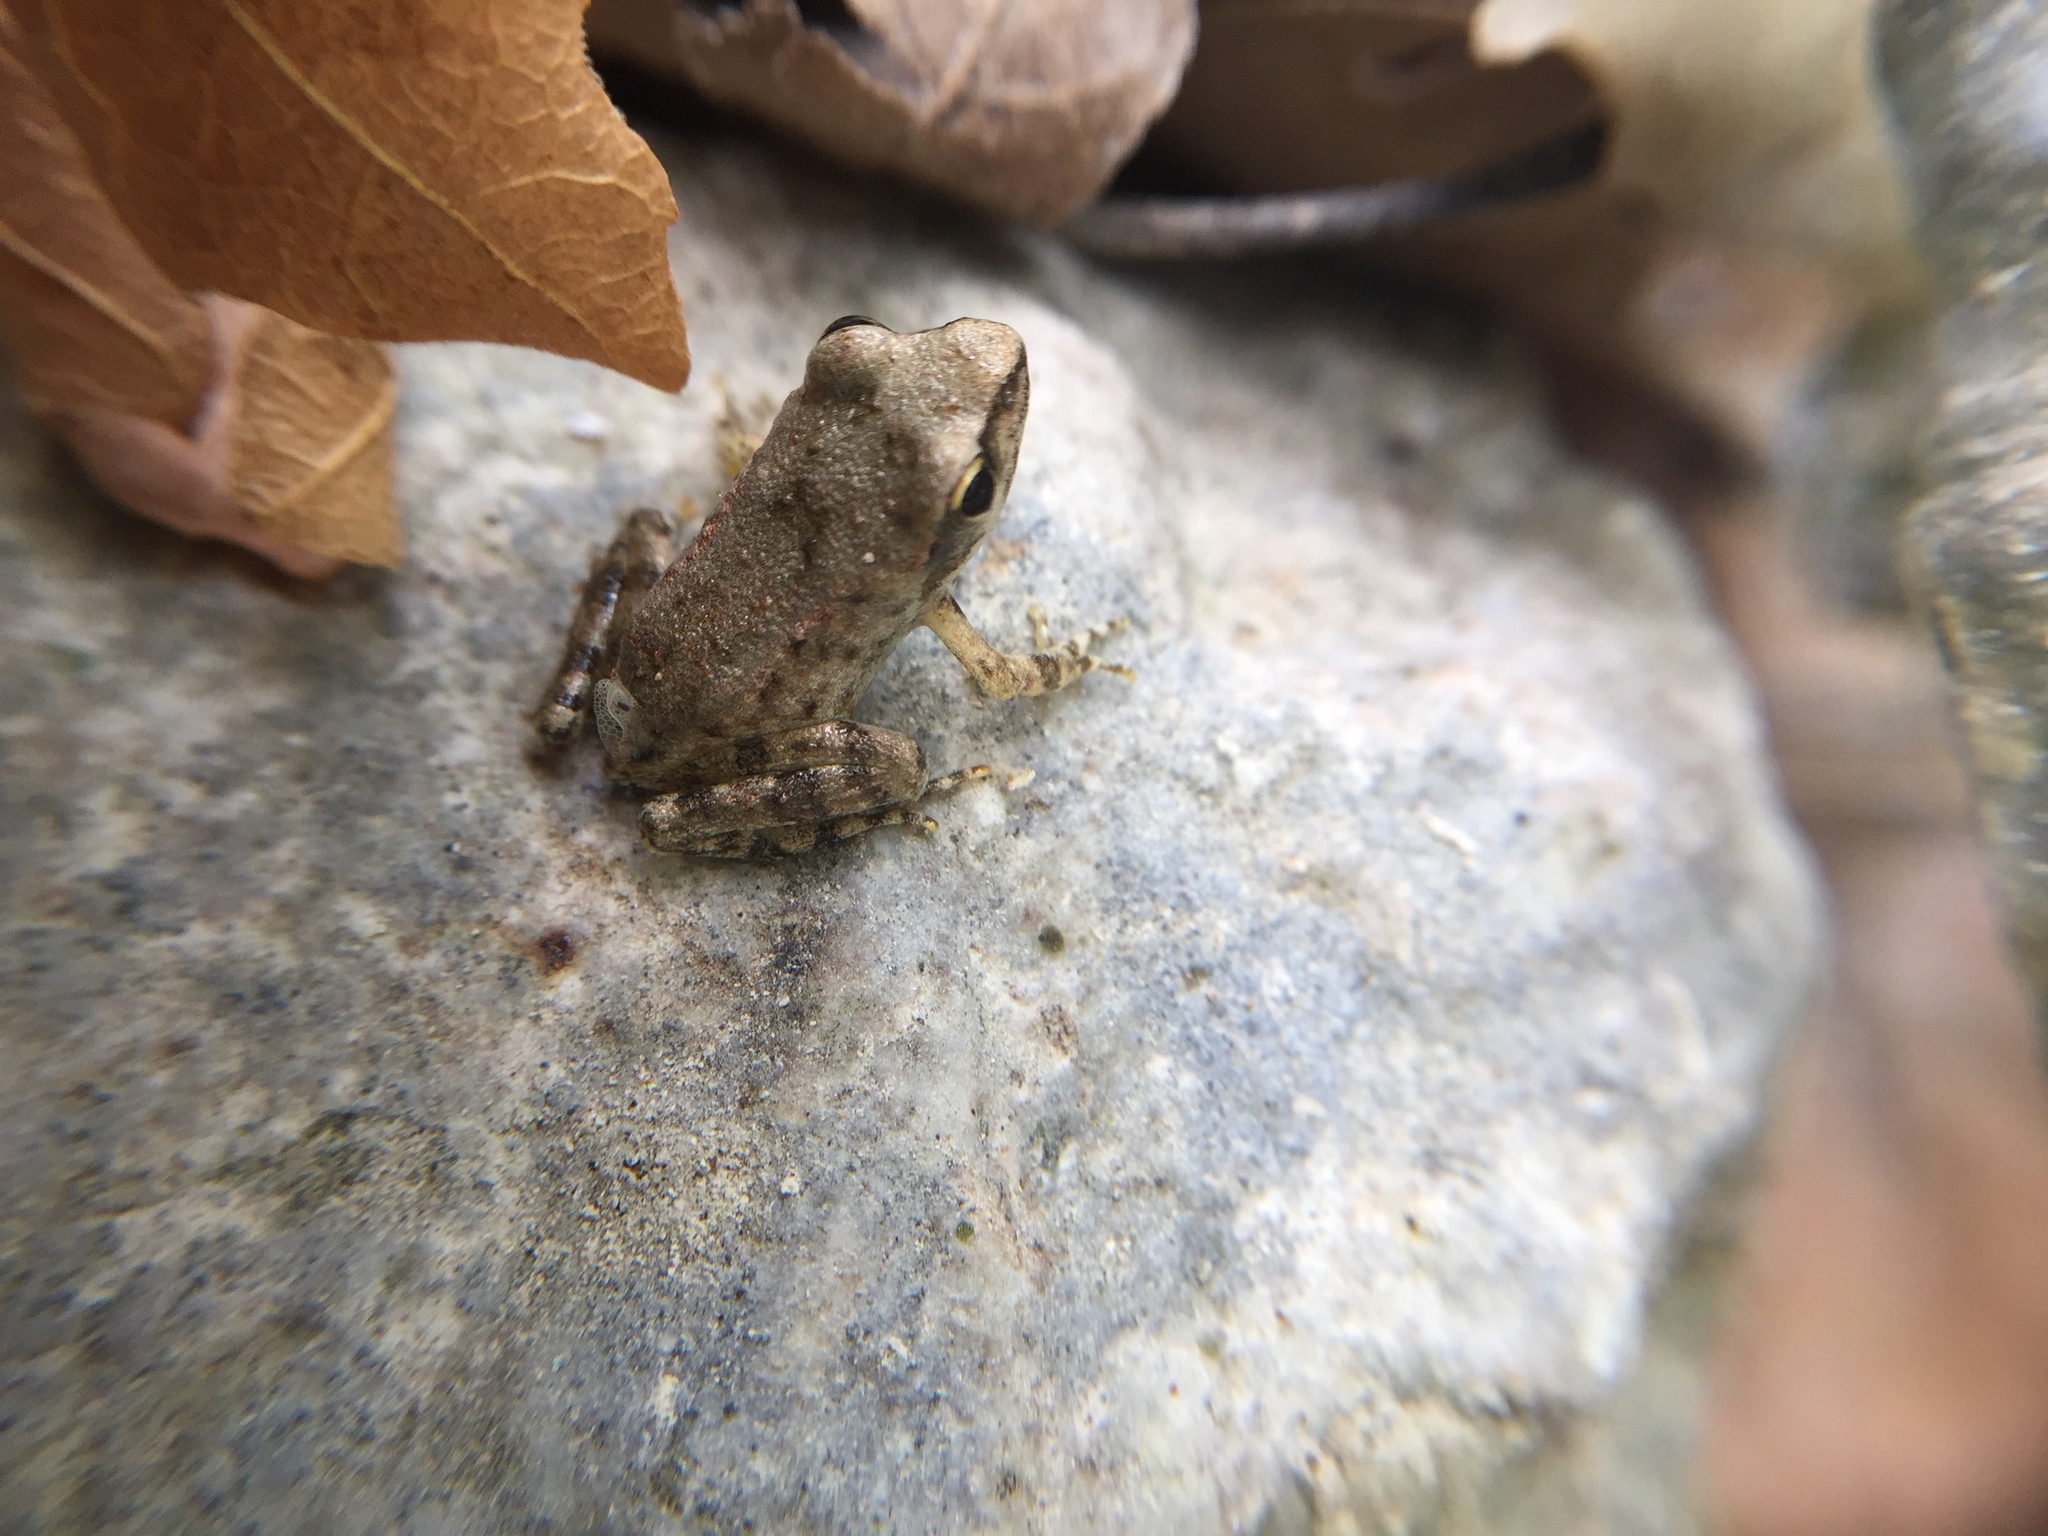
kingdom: Animalia
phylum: Chordata
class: Amphibia
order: Anura
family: Ranidae
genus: Rana
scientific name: Rana graeca
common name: Greek stream frog
